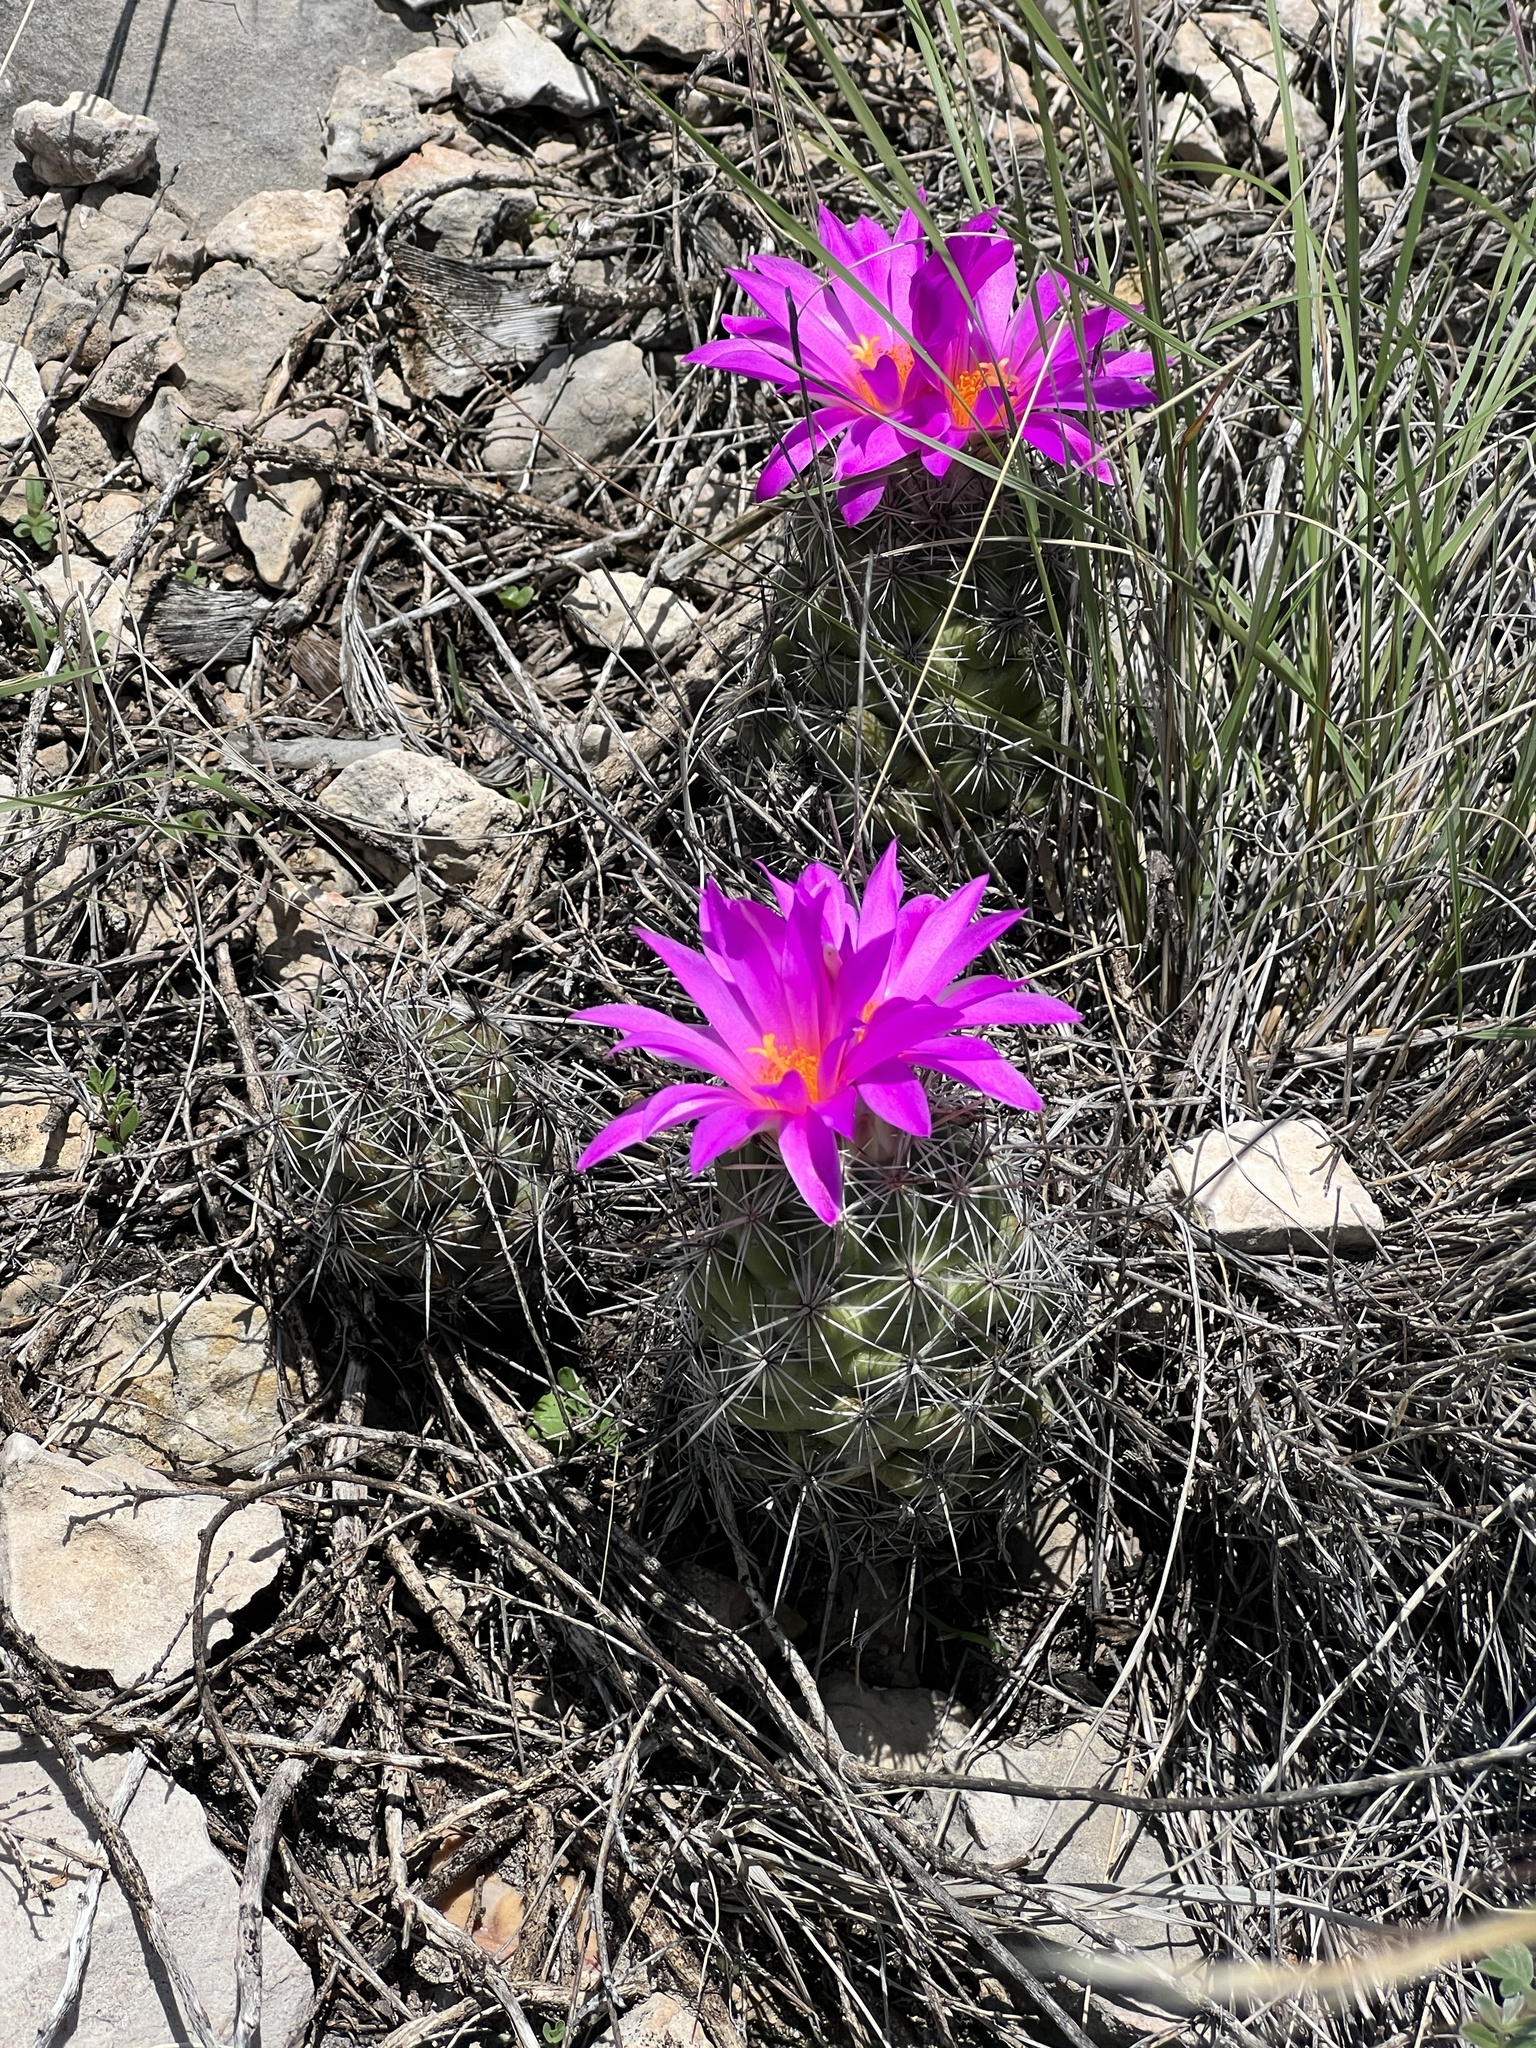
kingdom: Plantae
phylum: Tracheophyta
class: Magnoliopsida
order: Caryophyllales
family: Cactaceae
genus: Cochemiea
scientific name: Cochemiea conoidea
